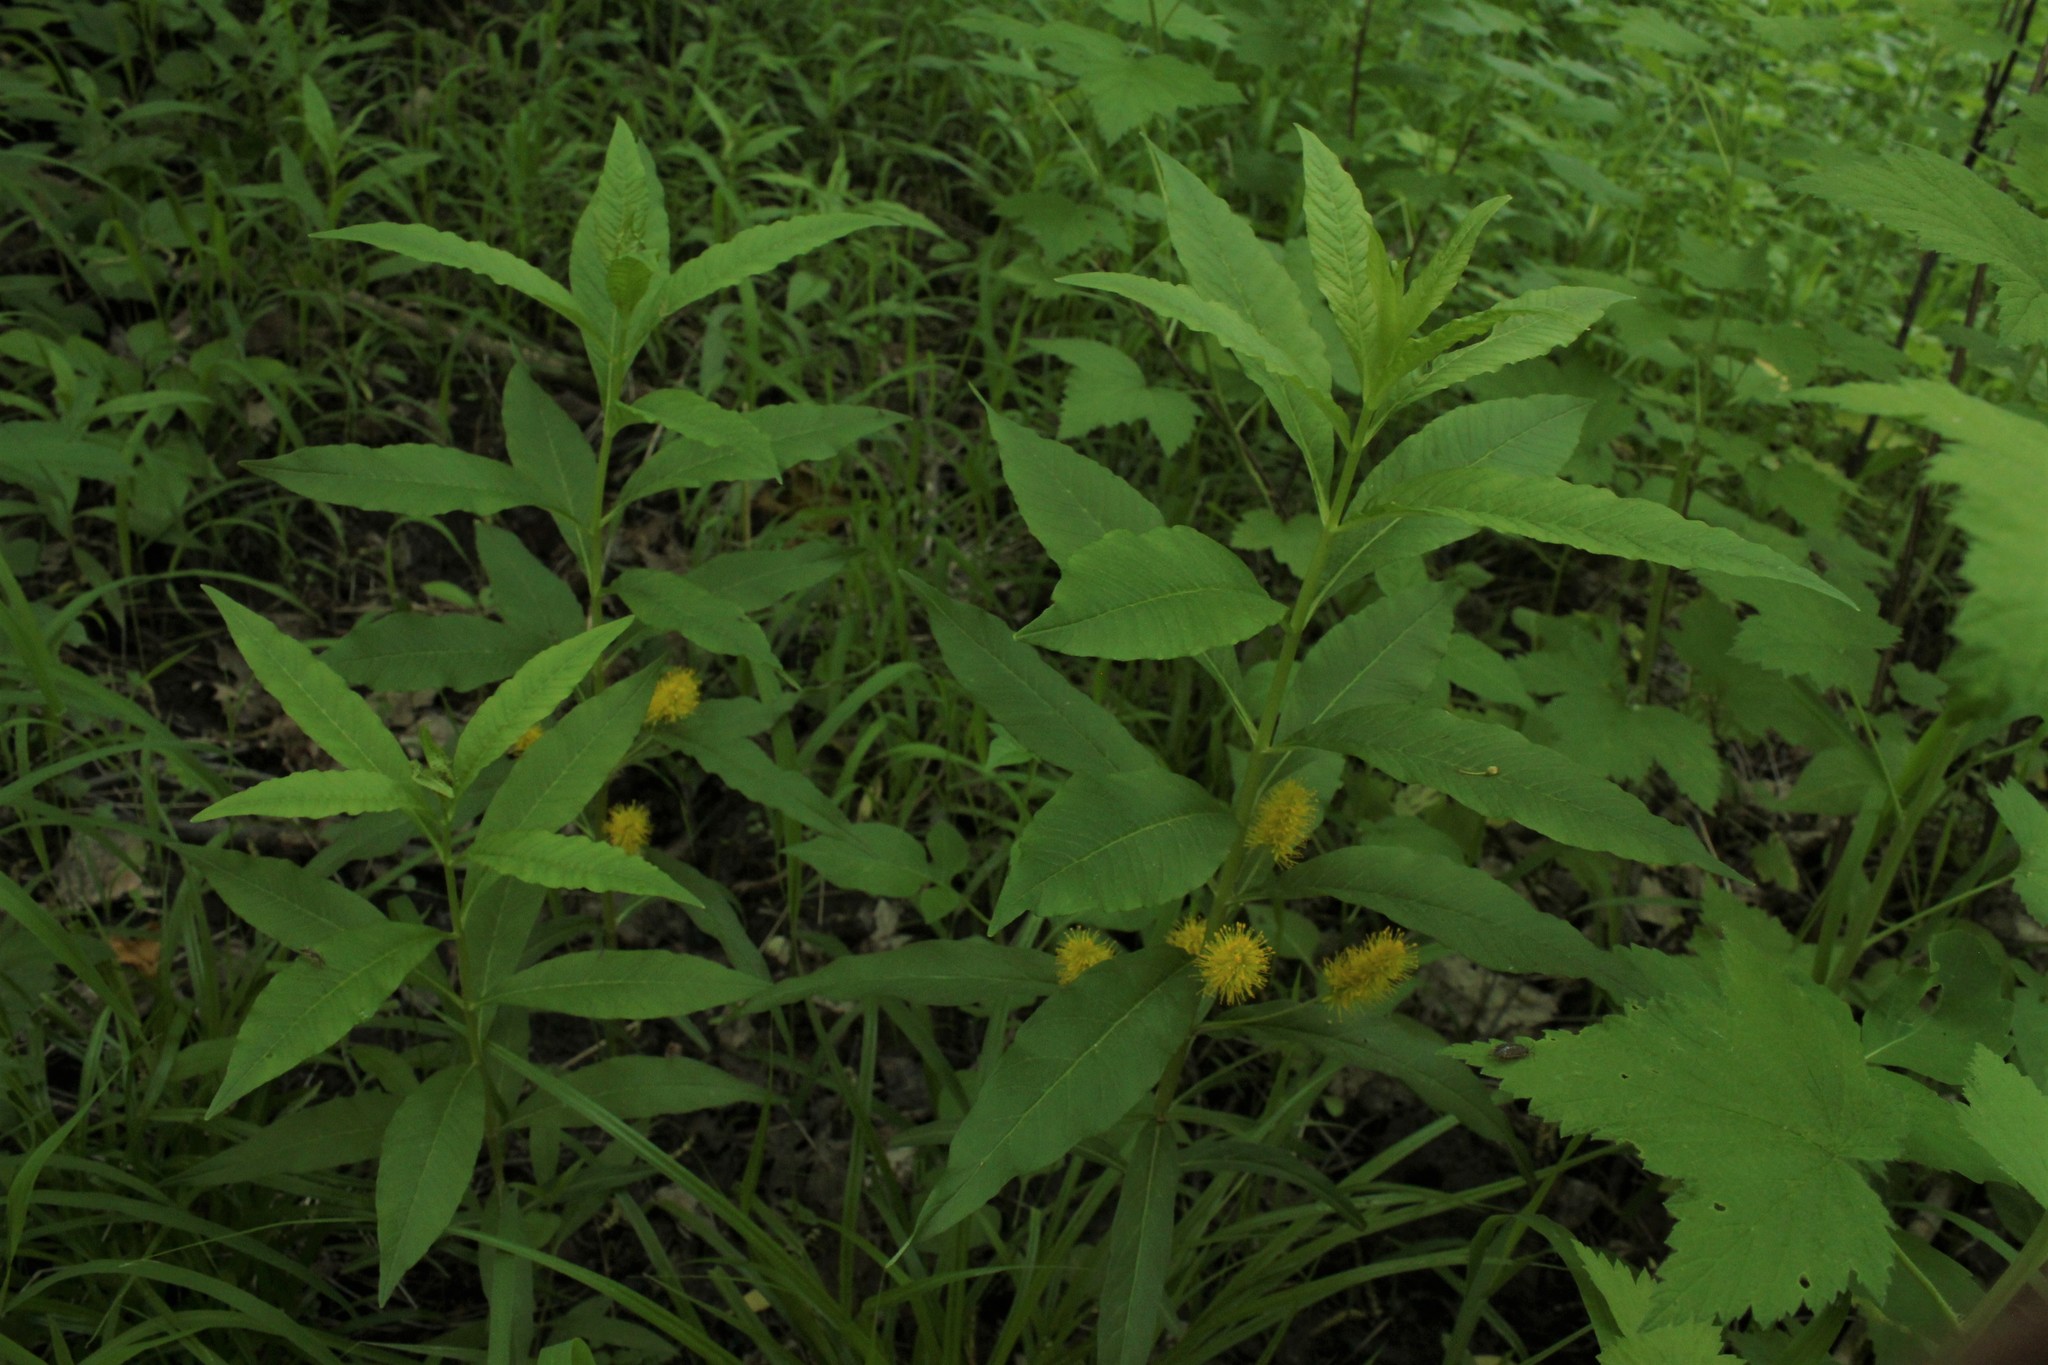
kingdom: Plantae
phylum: Tracheophyta
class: Magnoliopsida
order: Ericales
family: Primulaceae
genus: Lysimachia
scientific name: Lysimachia thyrsiflora
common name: Tufted loosestrife
